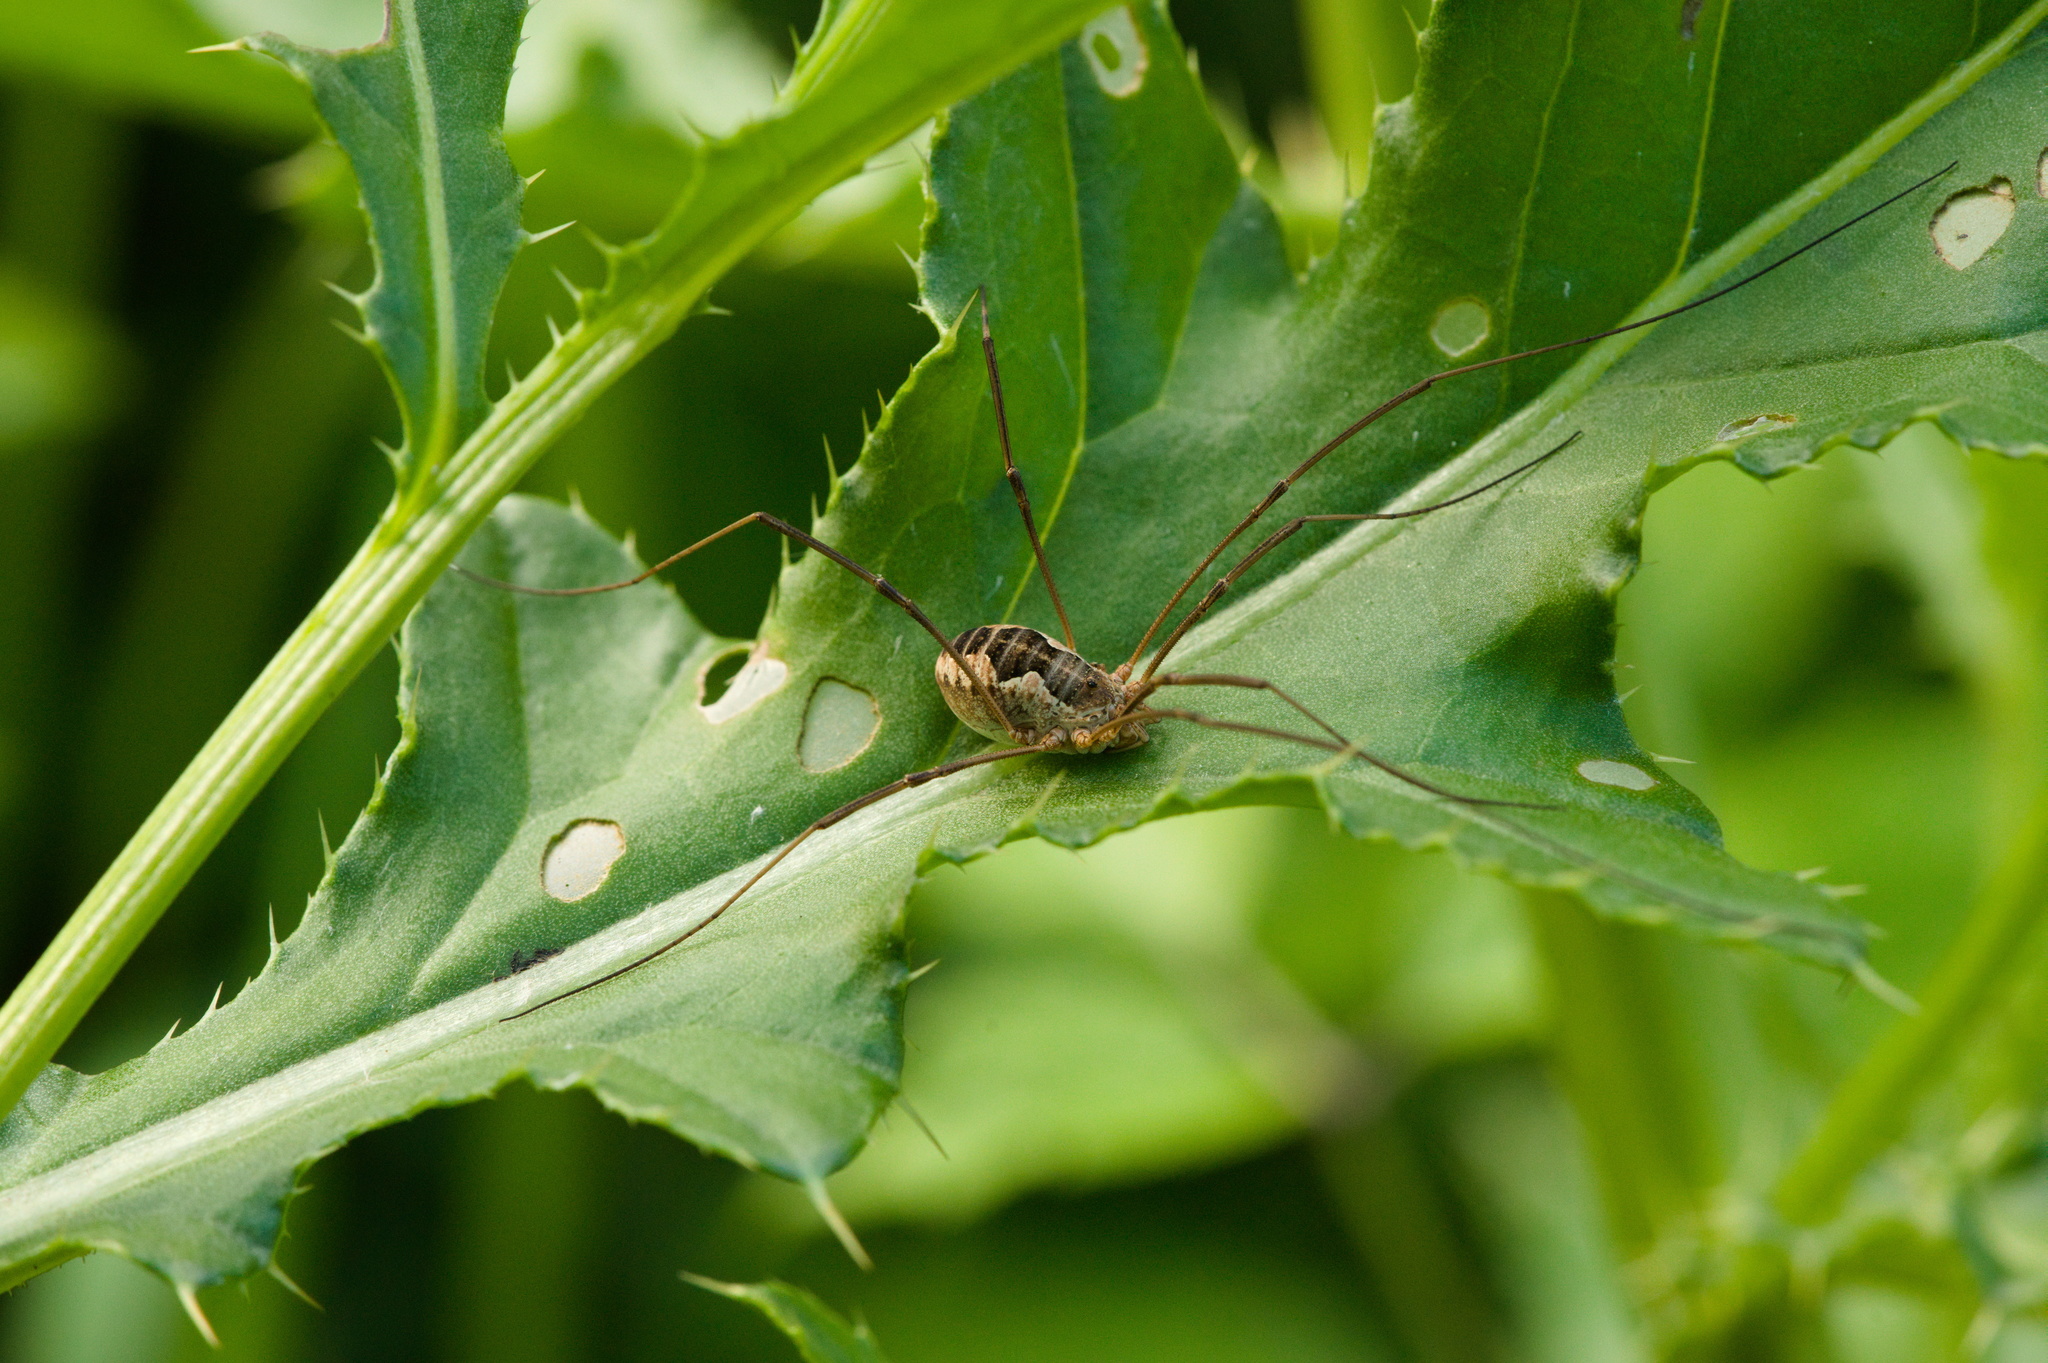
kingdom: Animalia
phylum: Arthropoda
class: Arachnida
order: Opiliones
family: Phalangiidae
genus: Phalangium
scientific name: Phalangium opilio
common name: Daddy longleg
